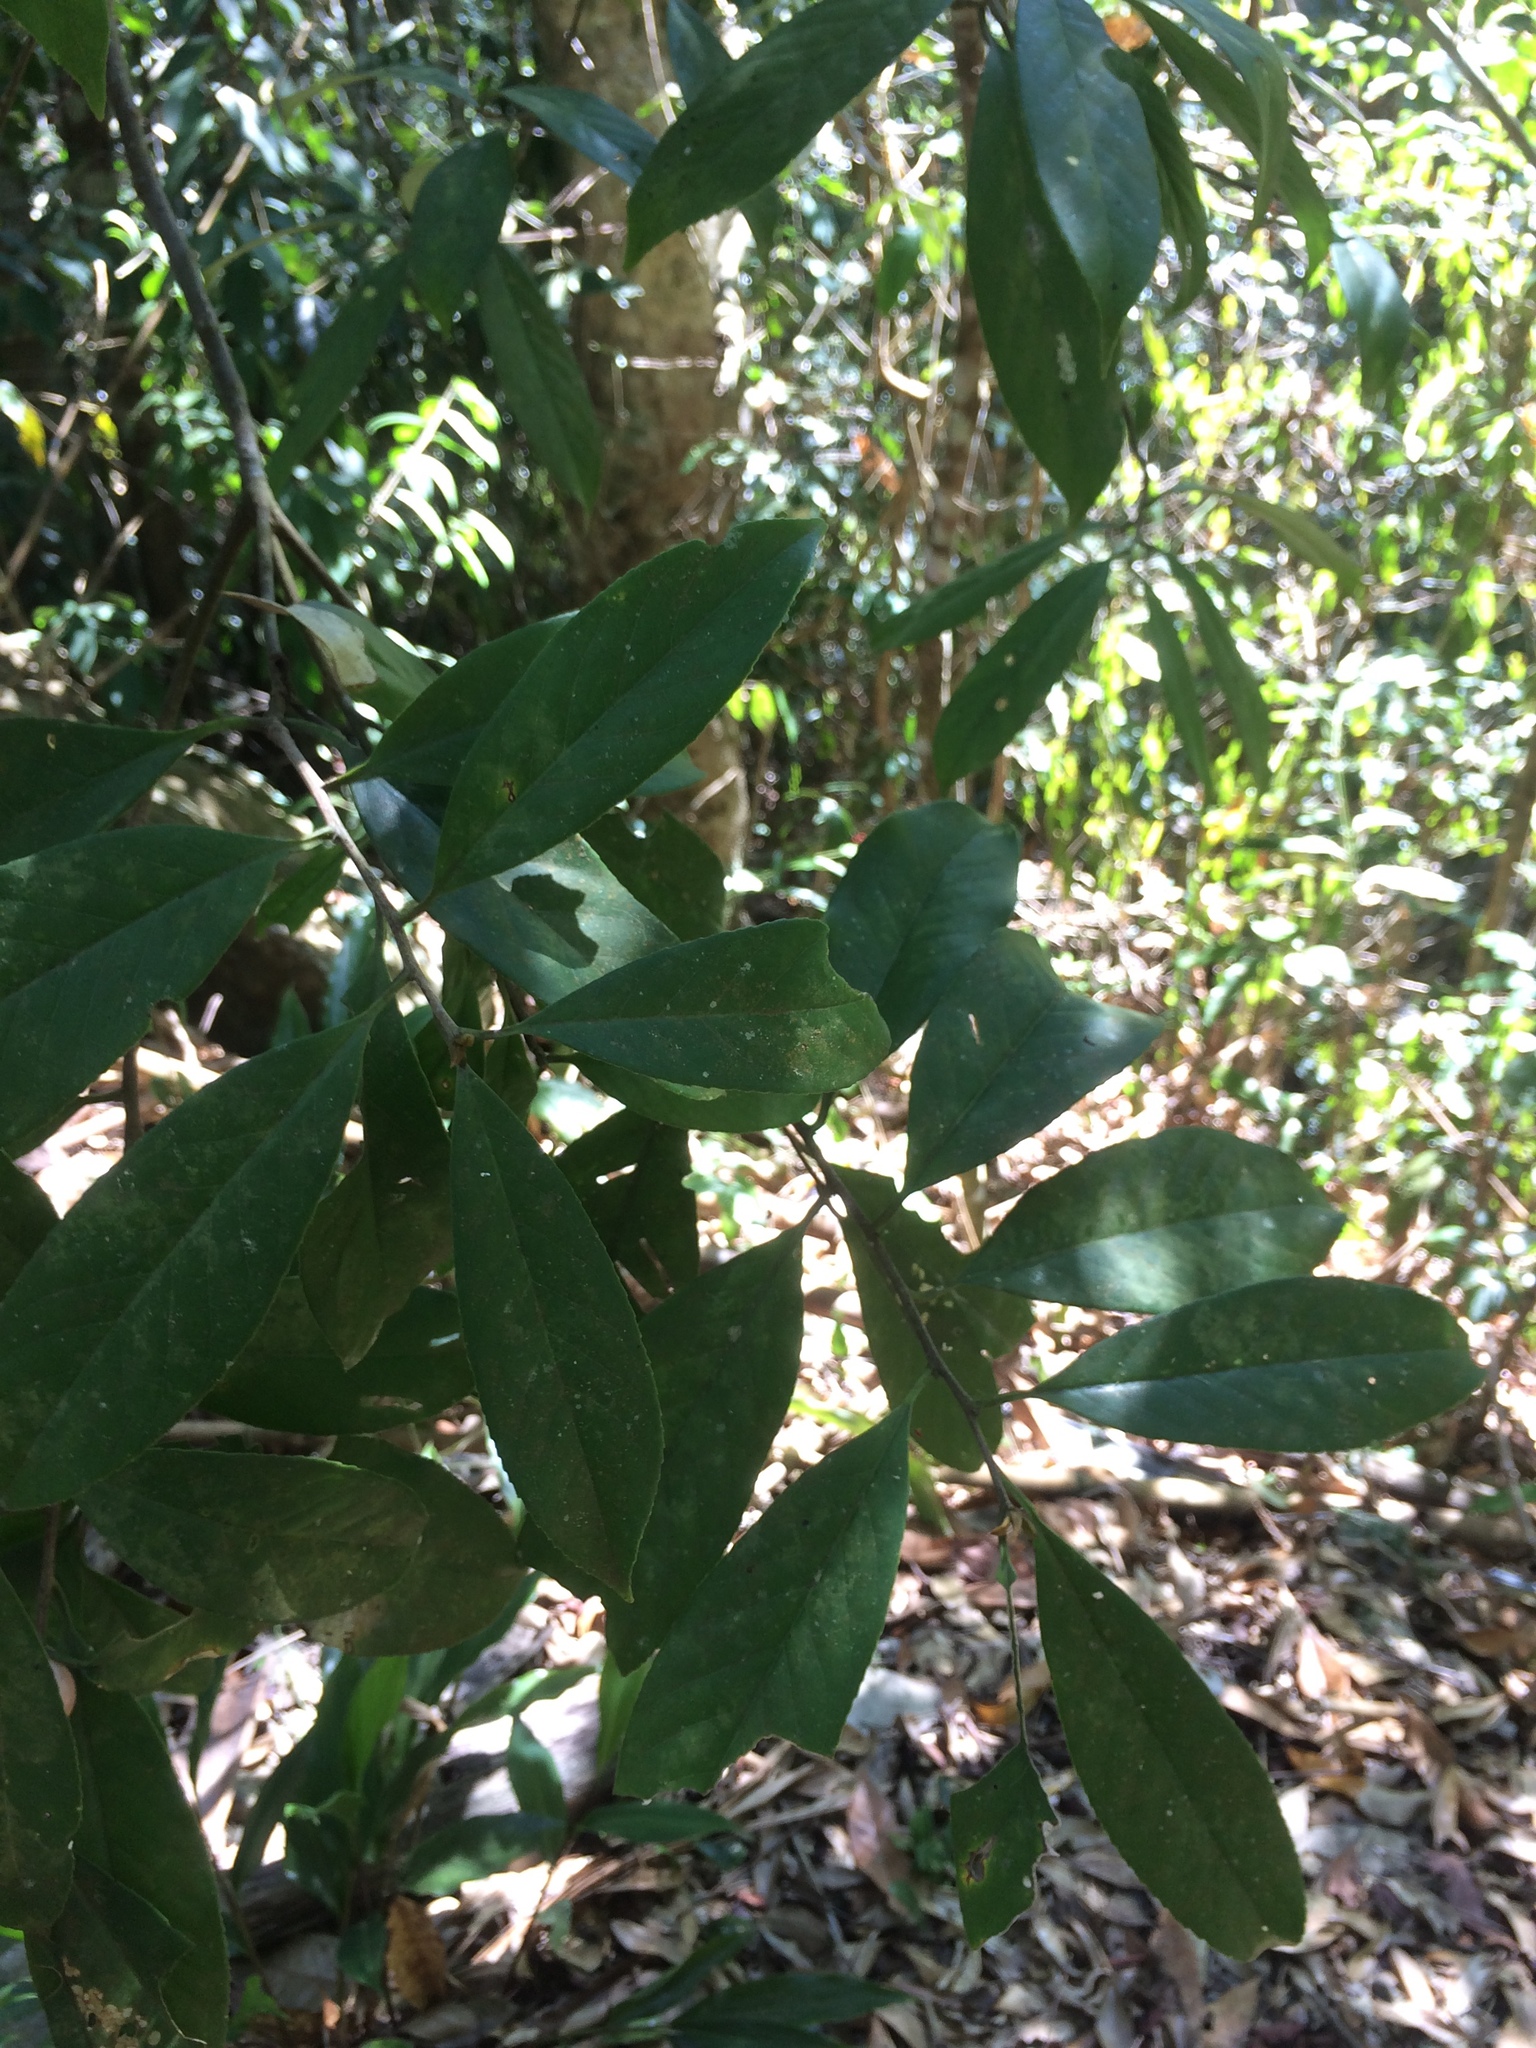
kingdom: Plantae
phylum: Tracheophyta
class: Magnoliopsida
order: Ericales
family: Symplocaceae
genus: Symplocos
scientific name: Symplocos acuminata
